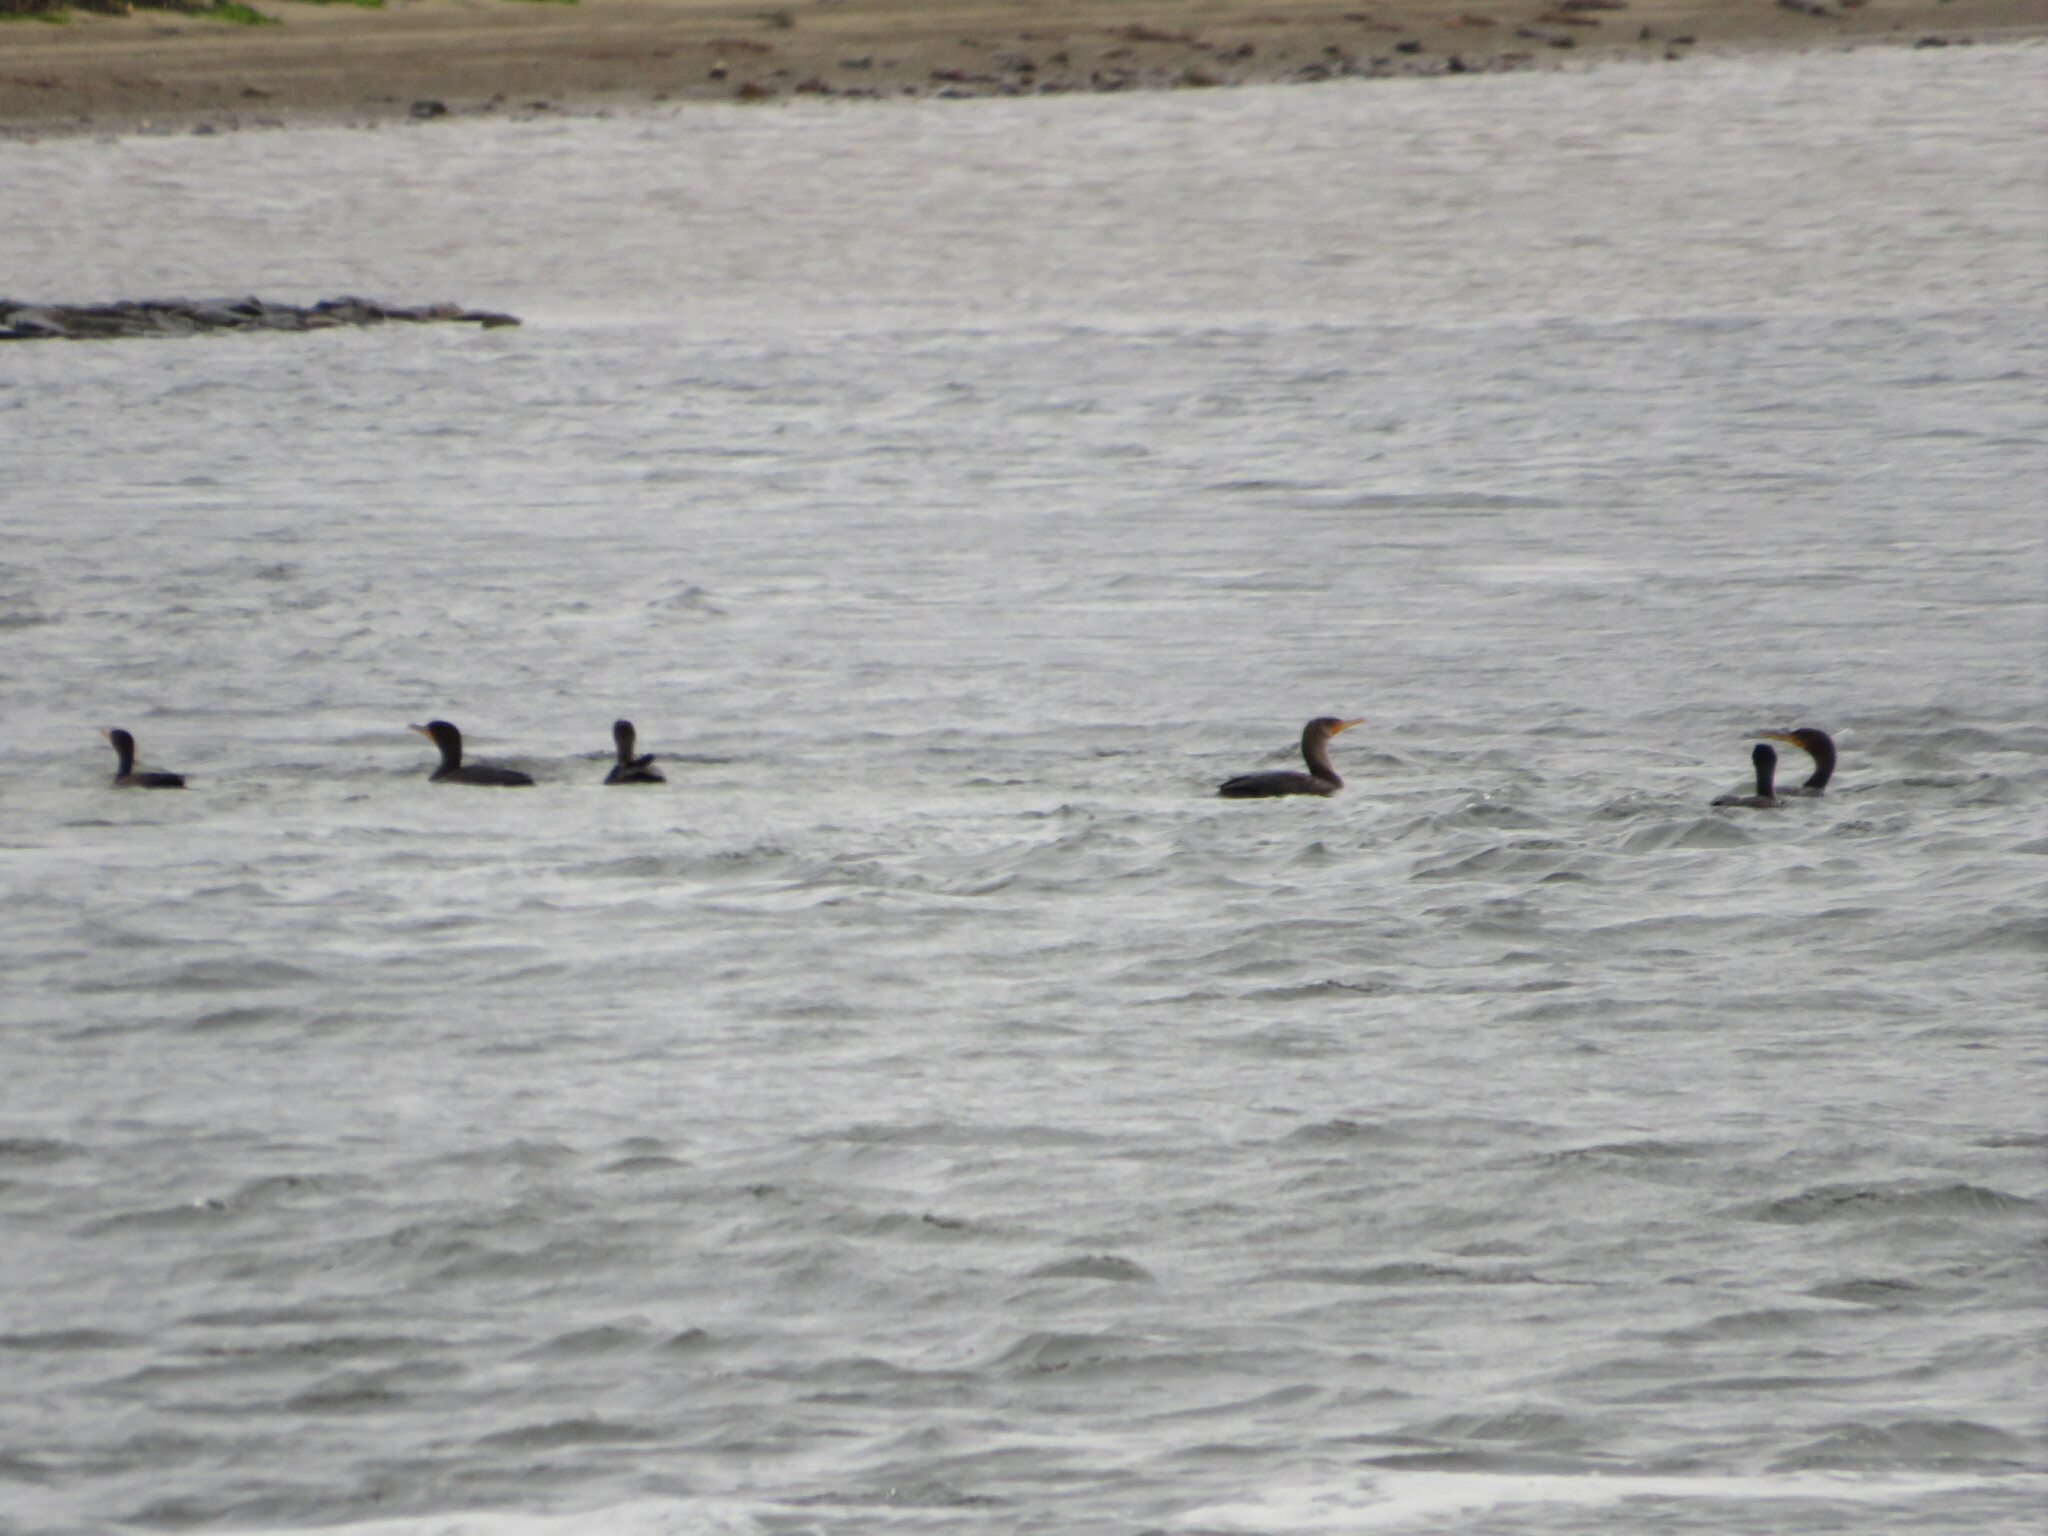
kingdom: Animalia
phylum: Chordata
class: Aves
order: Suliformes
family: Phalacrocoracidae
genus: Phalacrocorax
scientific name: Phalacrocorax auritus
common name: Double-crested cormorant
